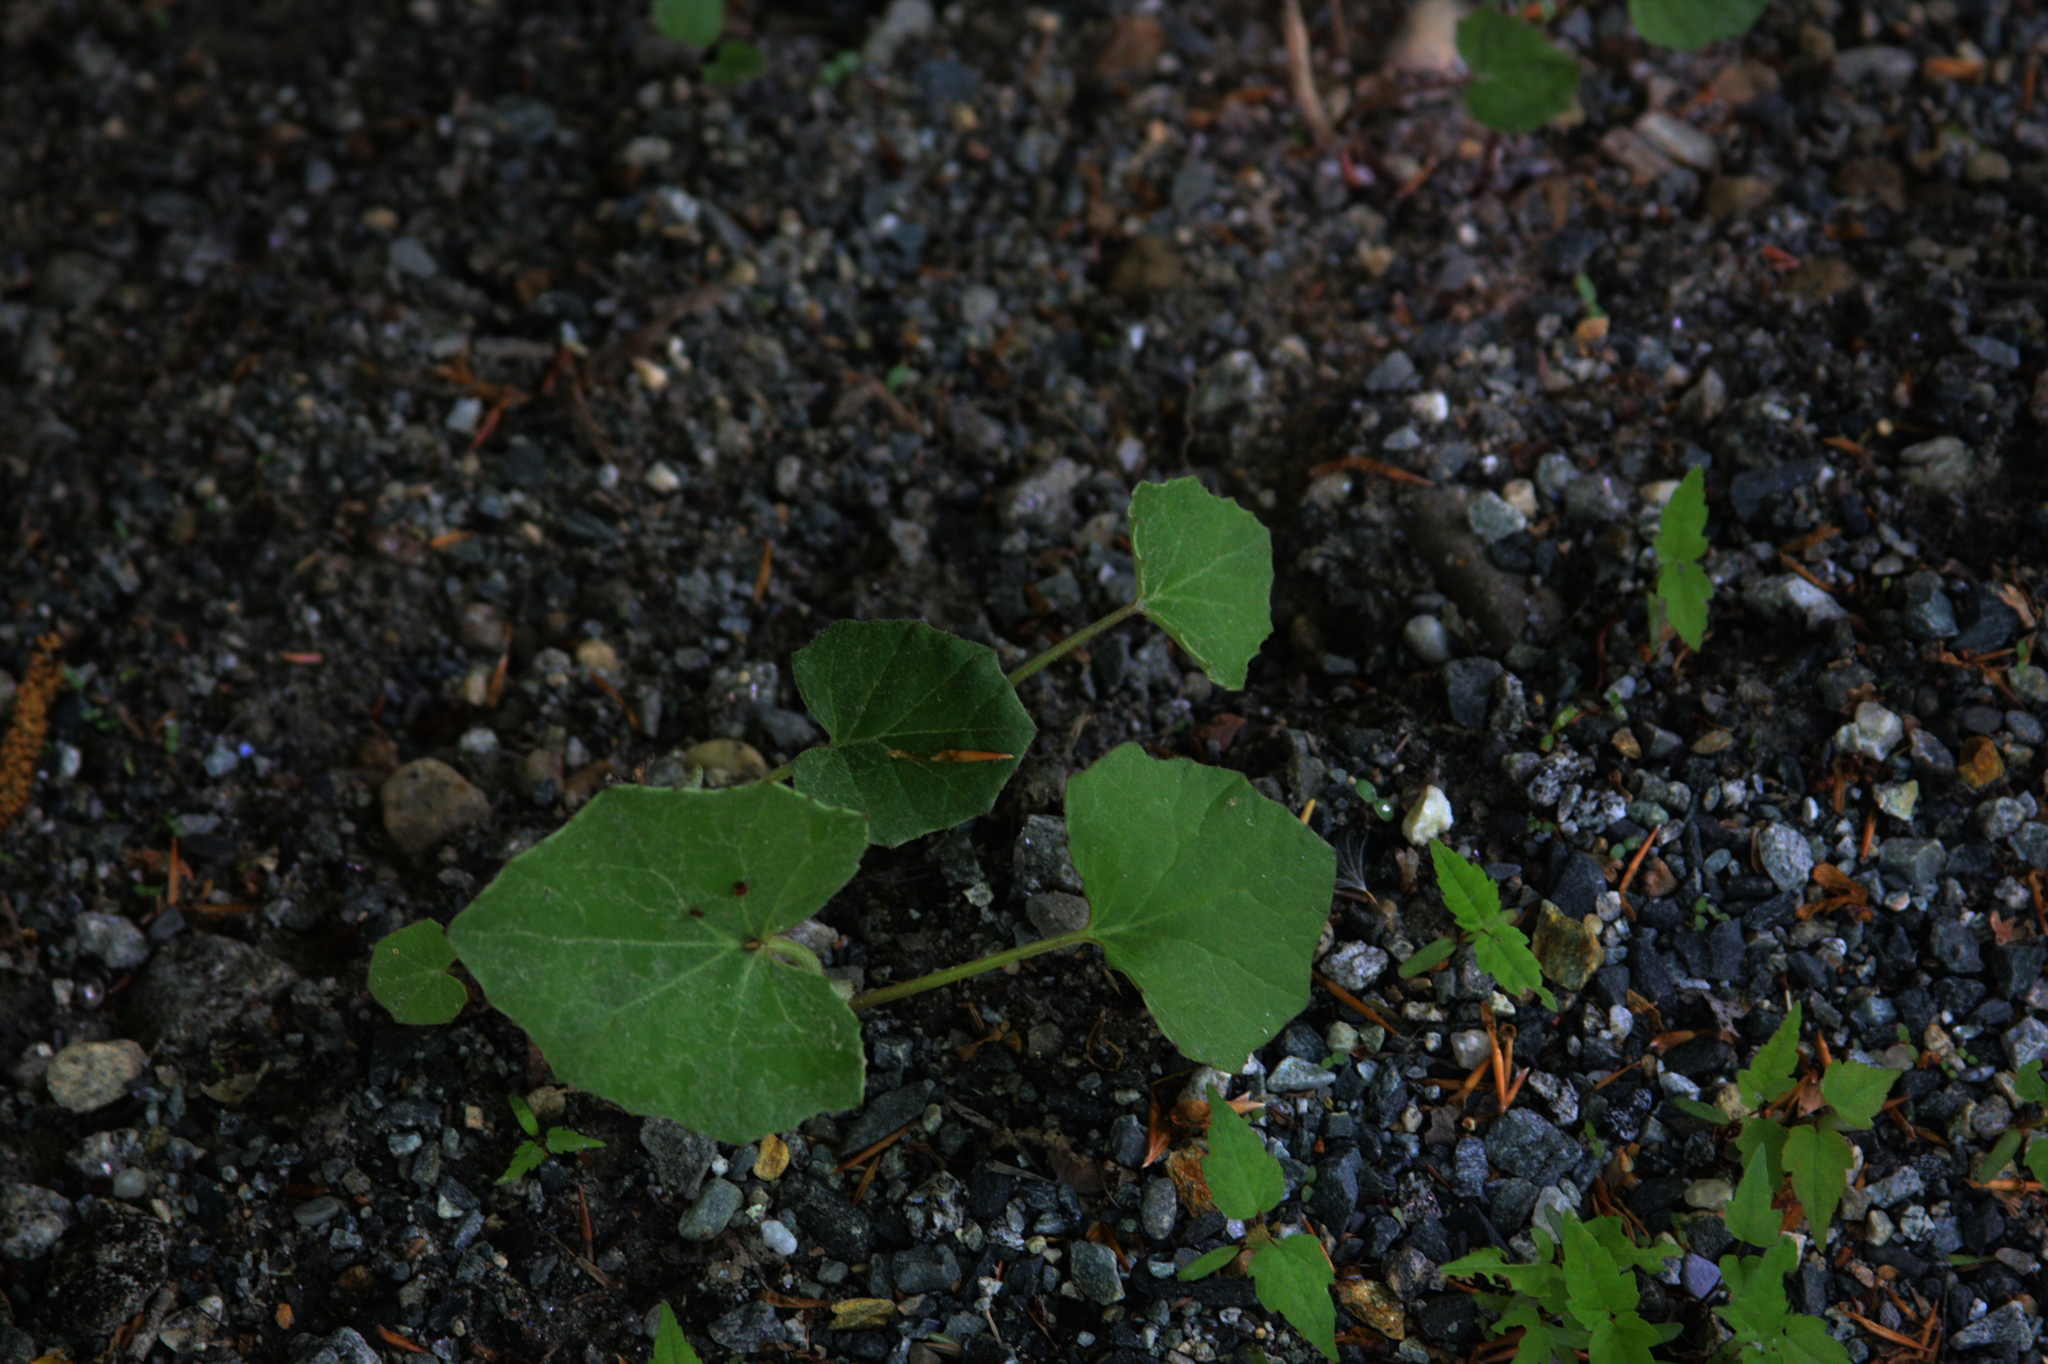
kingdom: Plantae
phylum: Tracheophyta
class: Magnoliopsida
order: Asterales
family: Asteraceae
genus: Tussilago
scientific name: Tussilago farfara
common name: Coltsfoot
